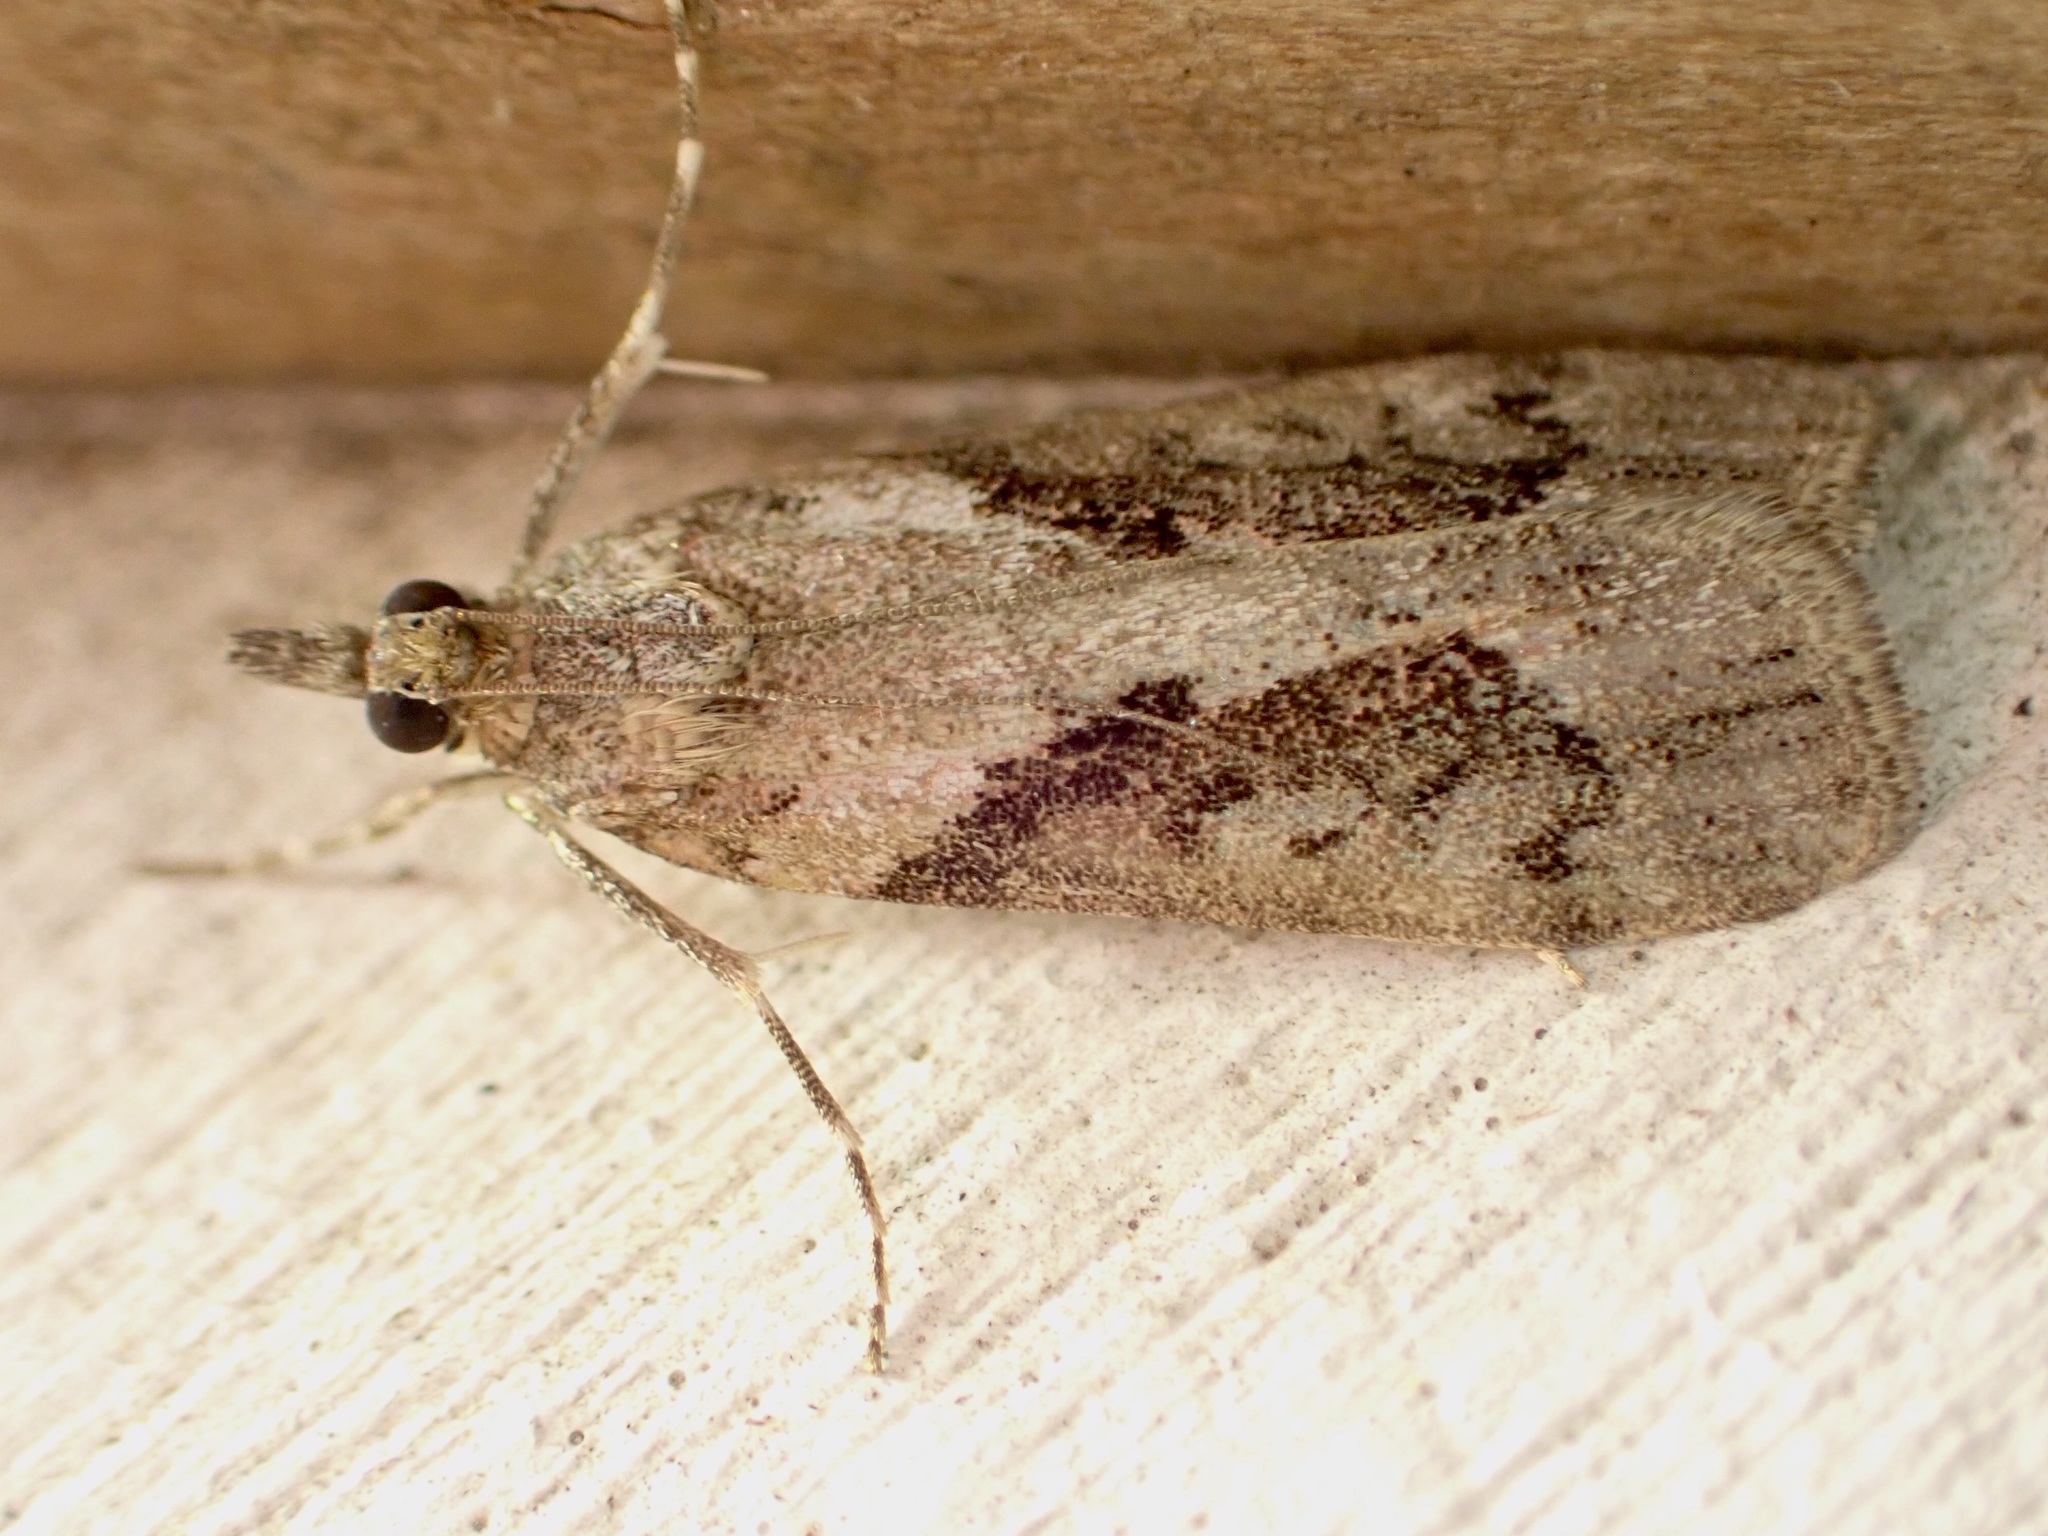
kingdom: Animalia
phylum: Arthropoda
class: Insecta
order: Lepidoptera
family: Crambidae
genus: Eudonia
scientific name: Eudonia submarginalis
